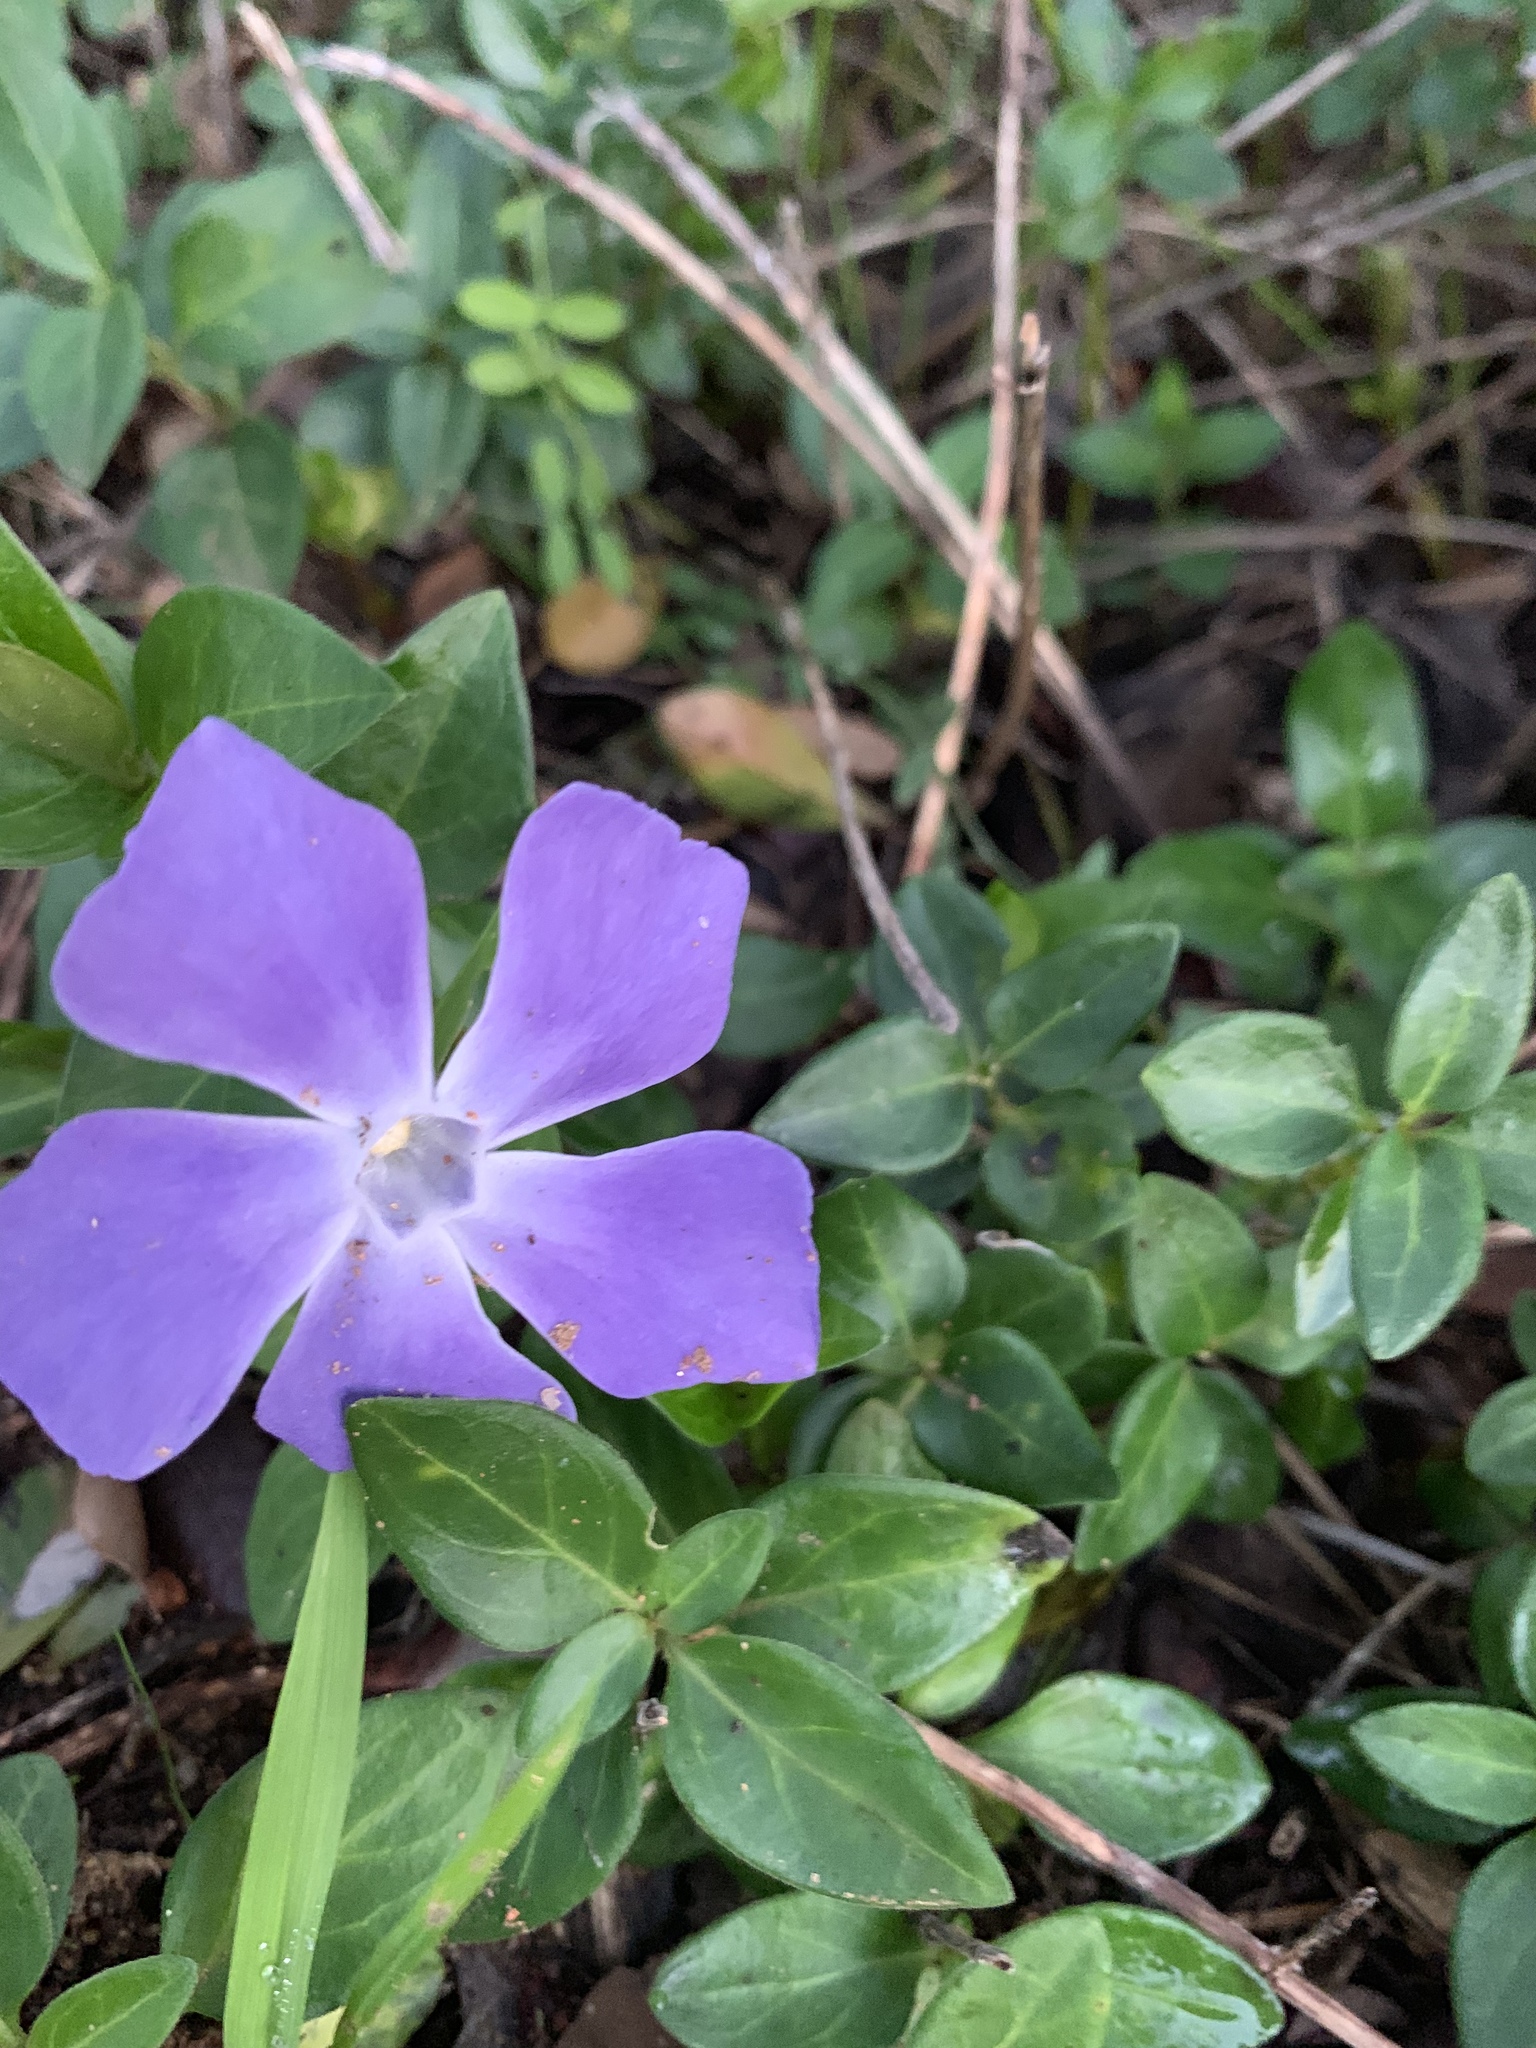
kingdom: Plantae
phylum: Tracheophyta
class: Magnoliopsida
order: Gentianales
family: Apocynaceae
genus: Vinca
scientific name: Vinca major
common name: Greater periwinkle
